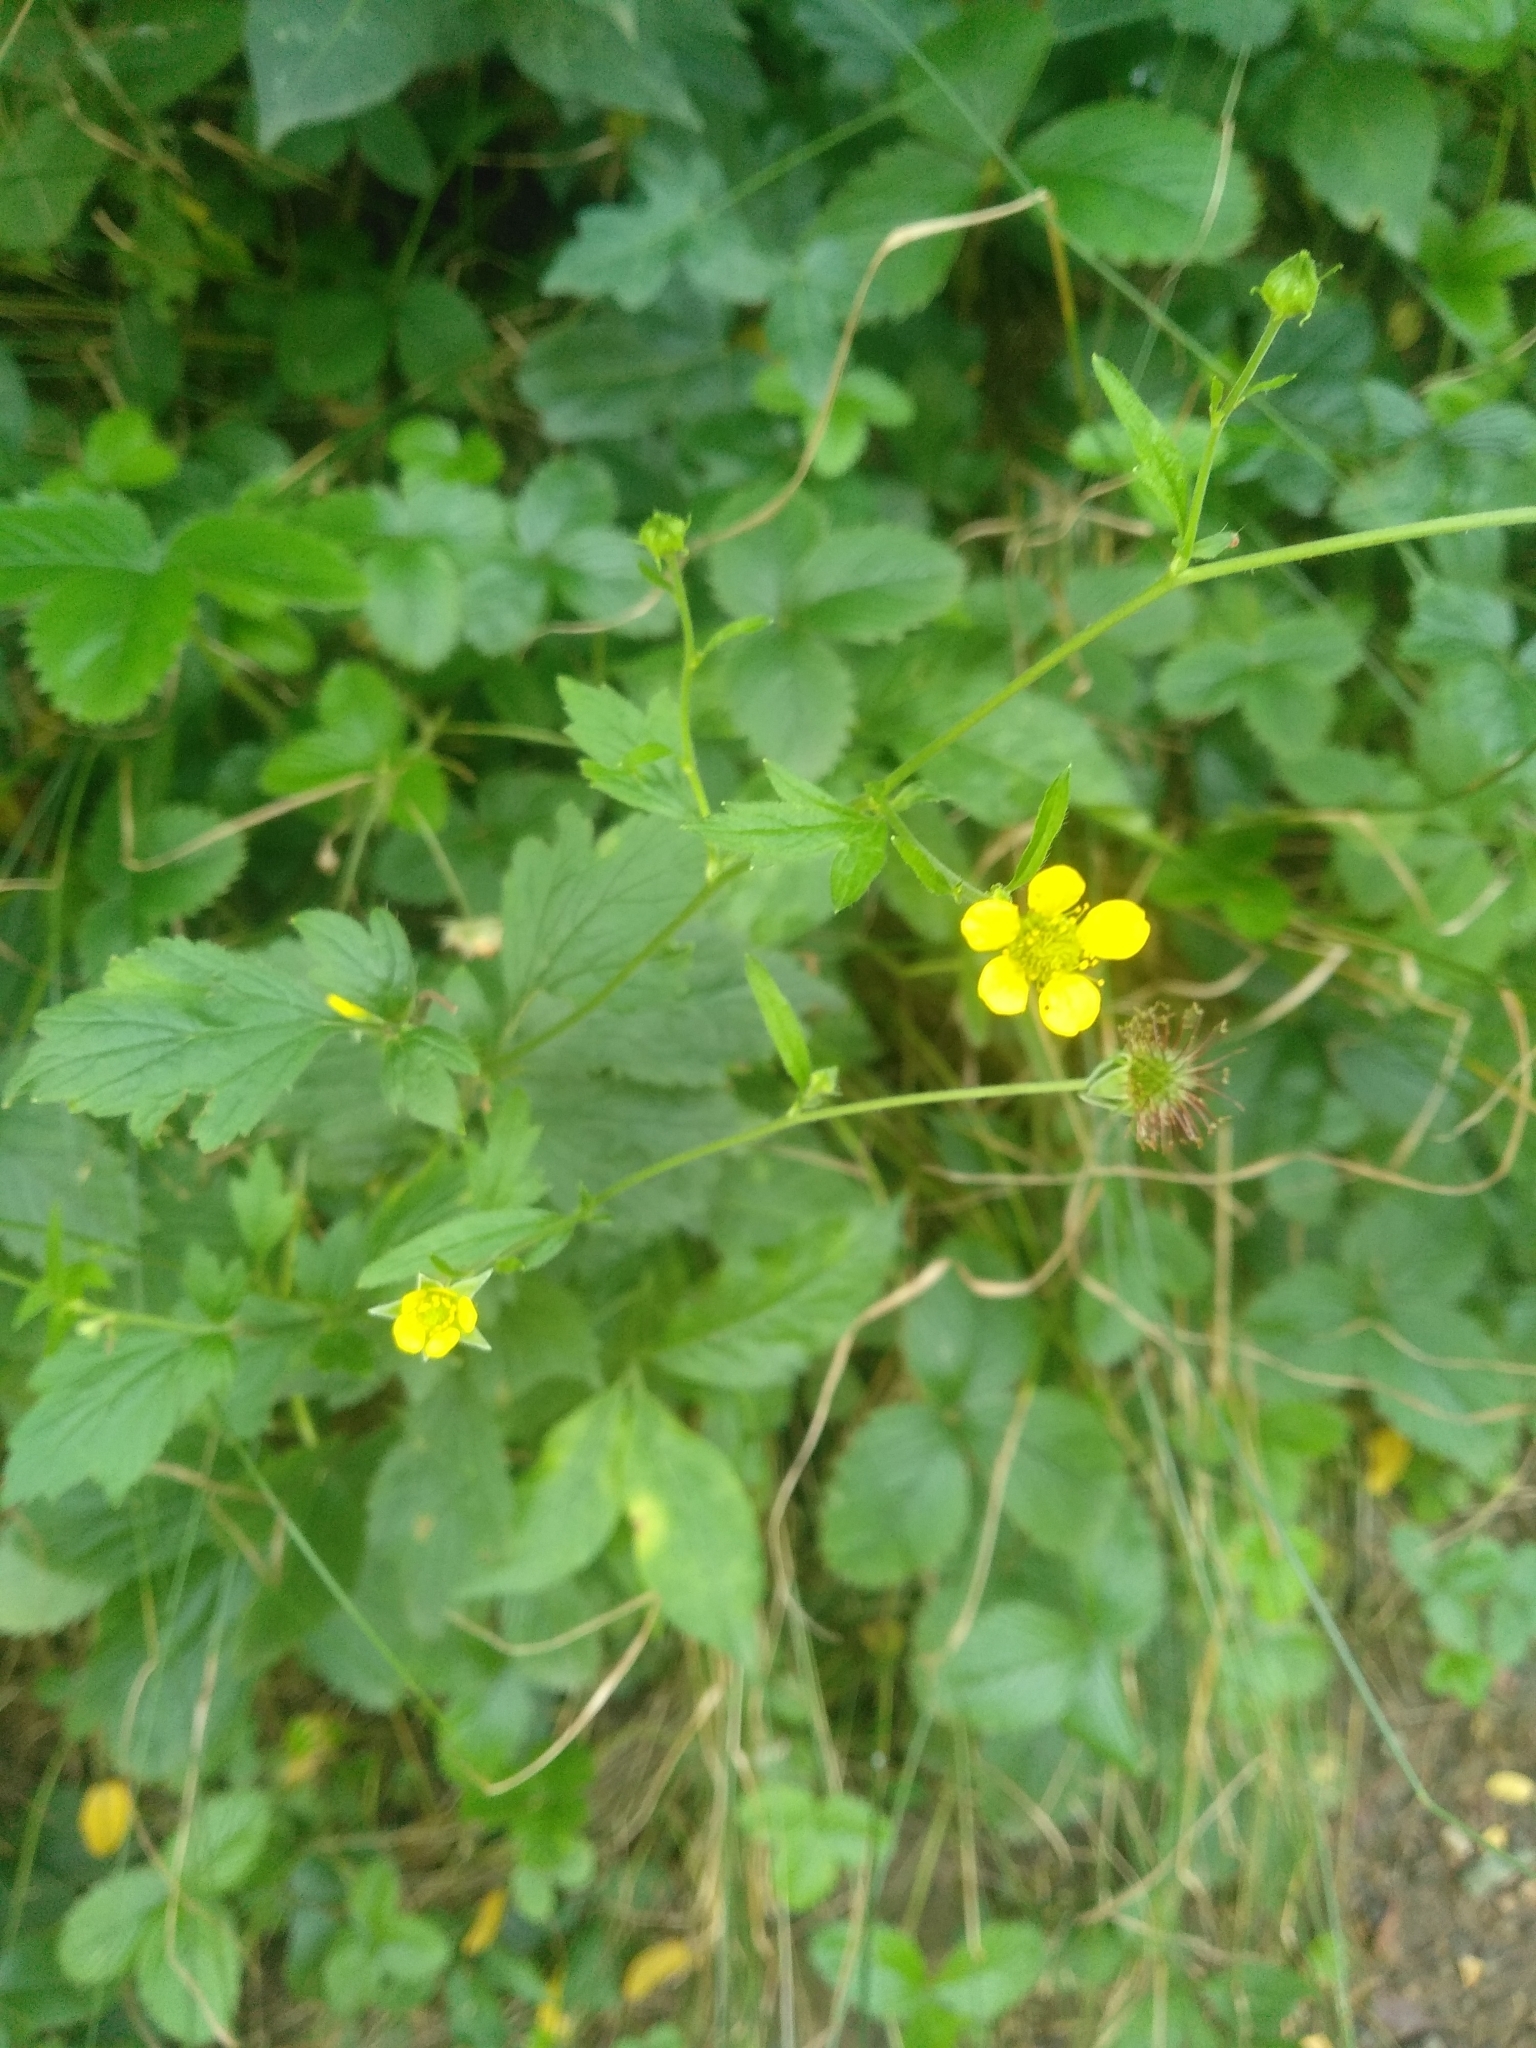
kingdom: Plantae
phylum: Tracheophyta
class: Magnoliopsida
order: Rosales
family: Rosaceae
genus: Geum
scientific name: Geum urbanum
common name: Wood avens
